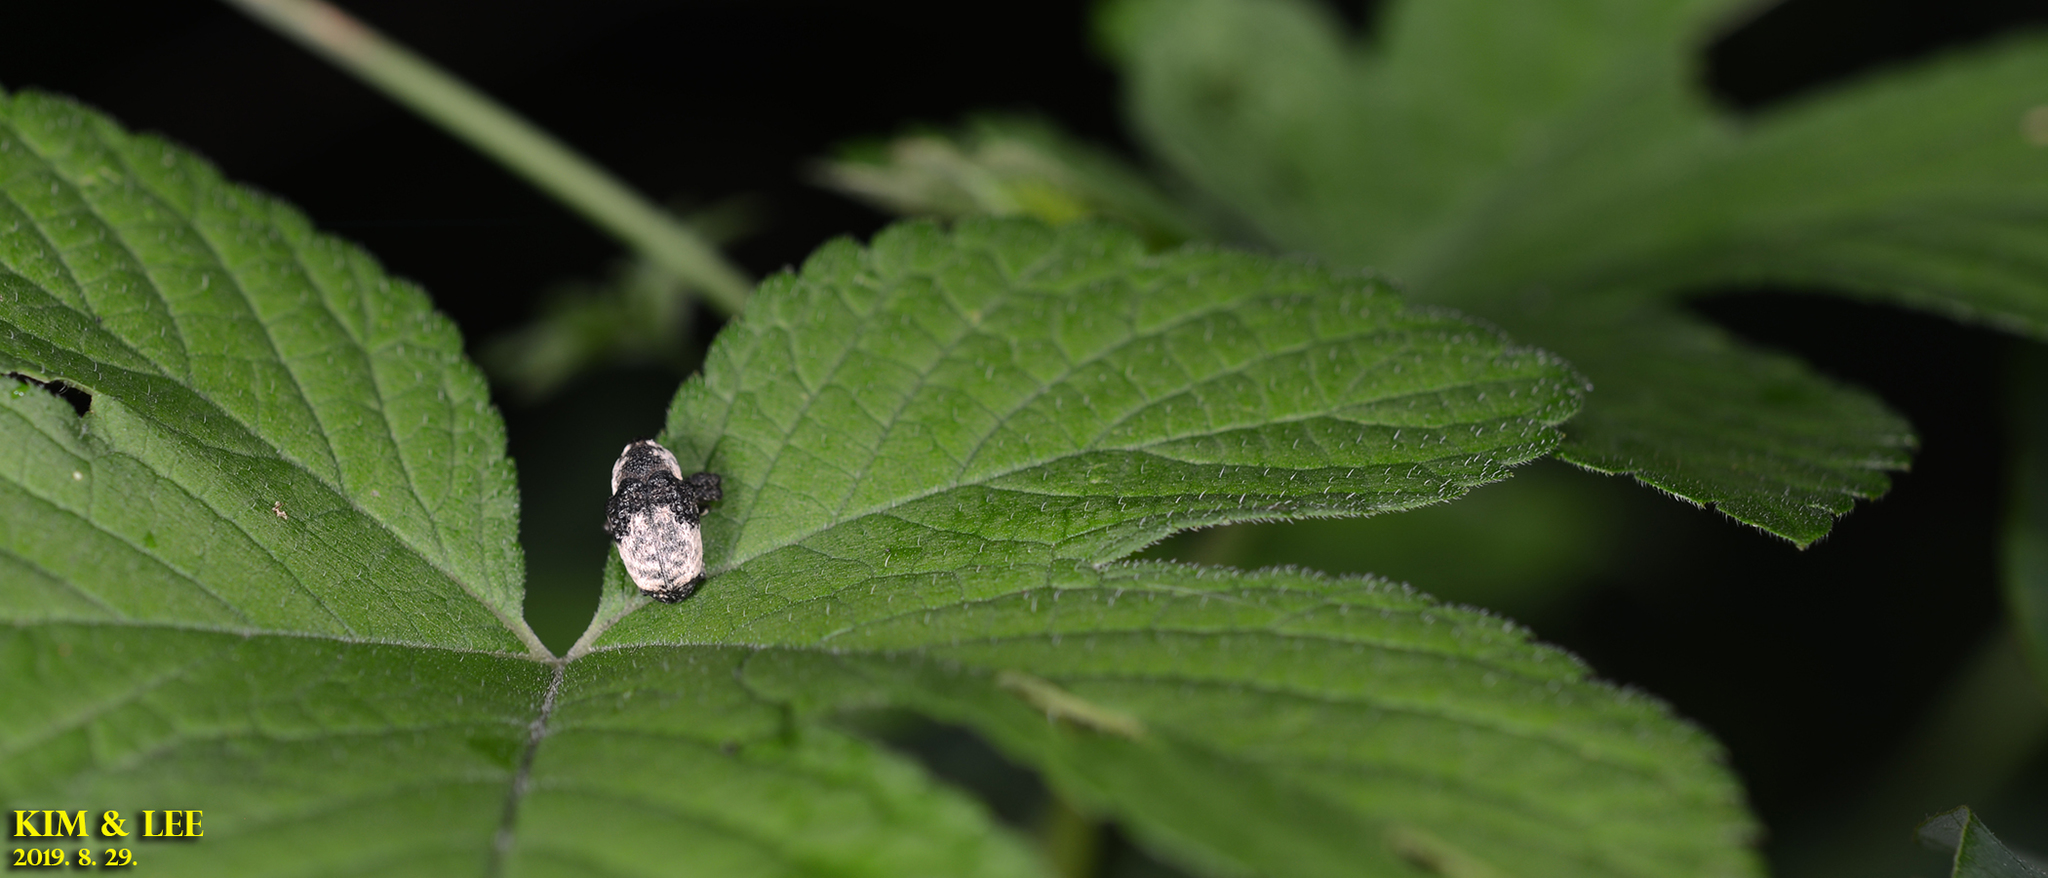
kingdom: Animalia
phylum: Arthropoda
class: Insecta
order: Coleoptera
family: Curculionidae
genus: Alcides
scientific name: Alcides trifidus
